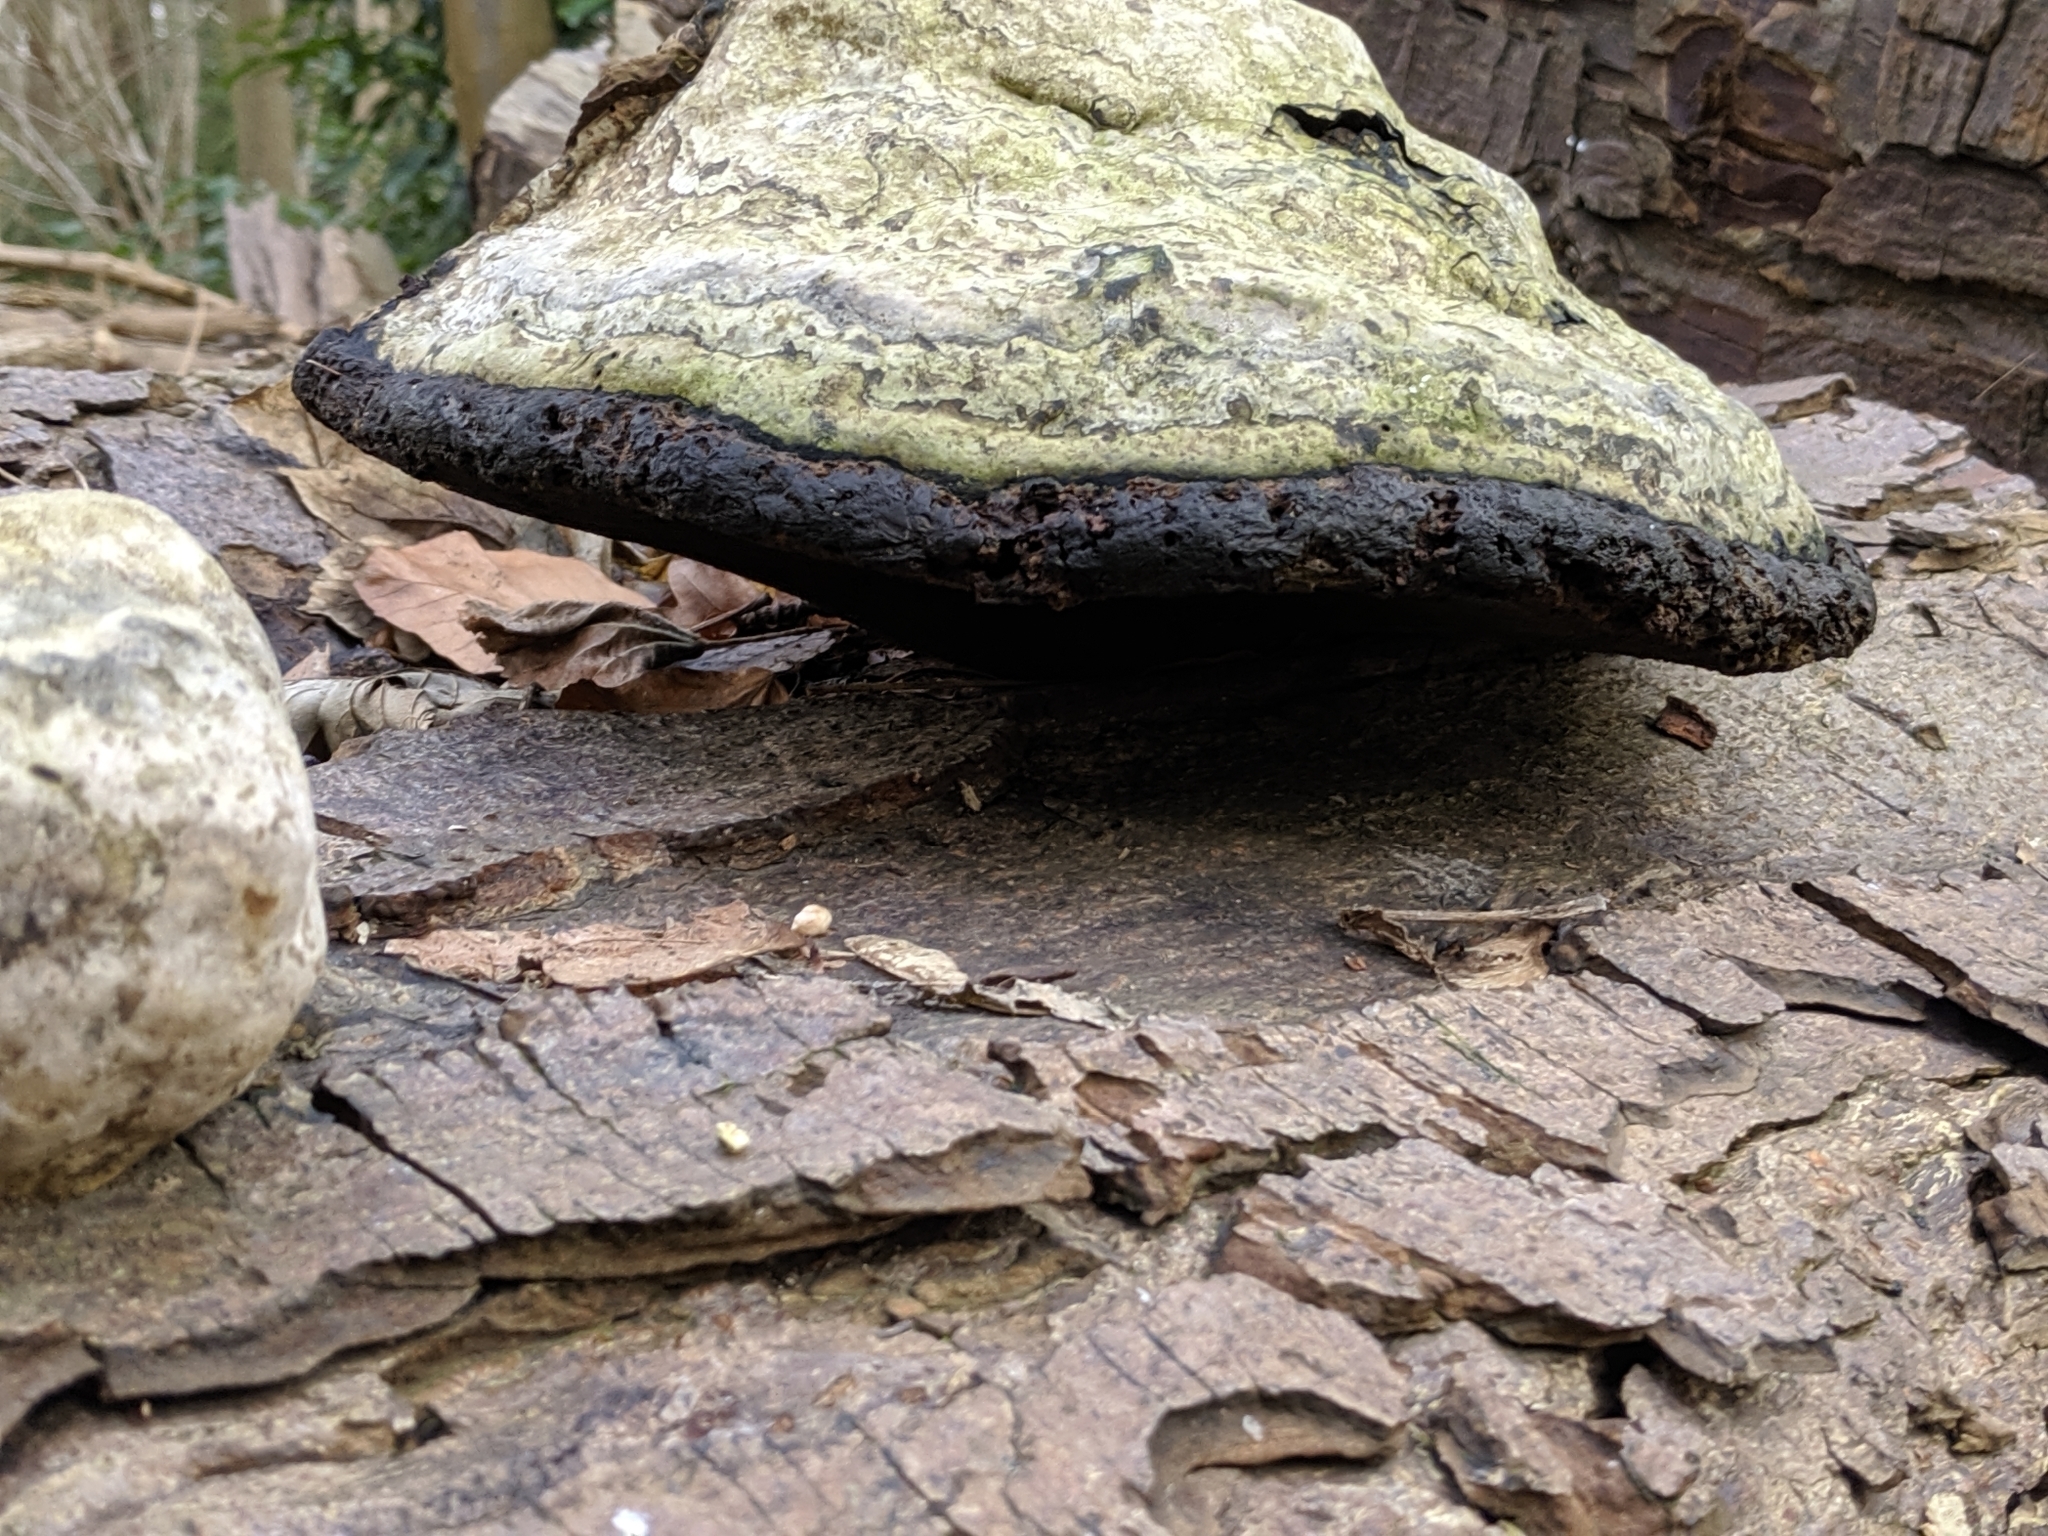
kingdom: Fungi
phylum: Basidiomycota
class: Agaricomycetes
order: Polyporales
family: Polyporaceae
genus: Fomes
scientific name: Fomes fomentarius
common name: Hoof fungus
